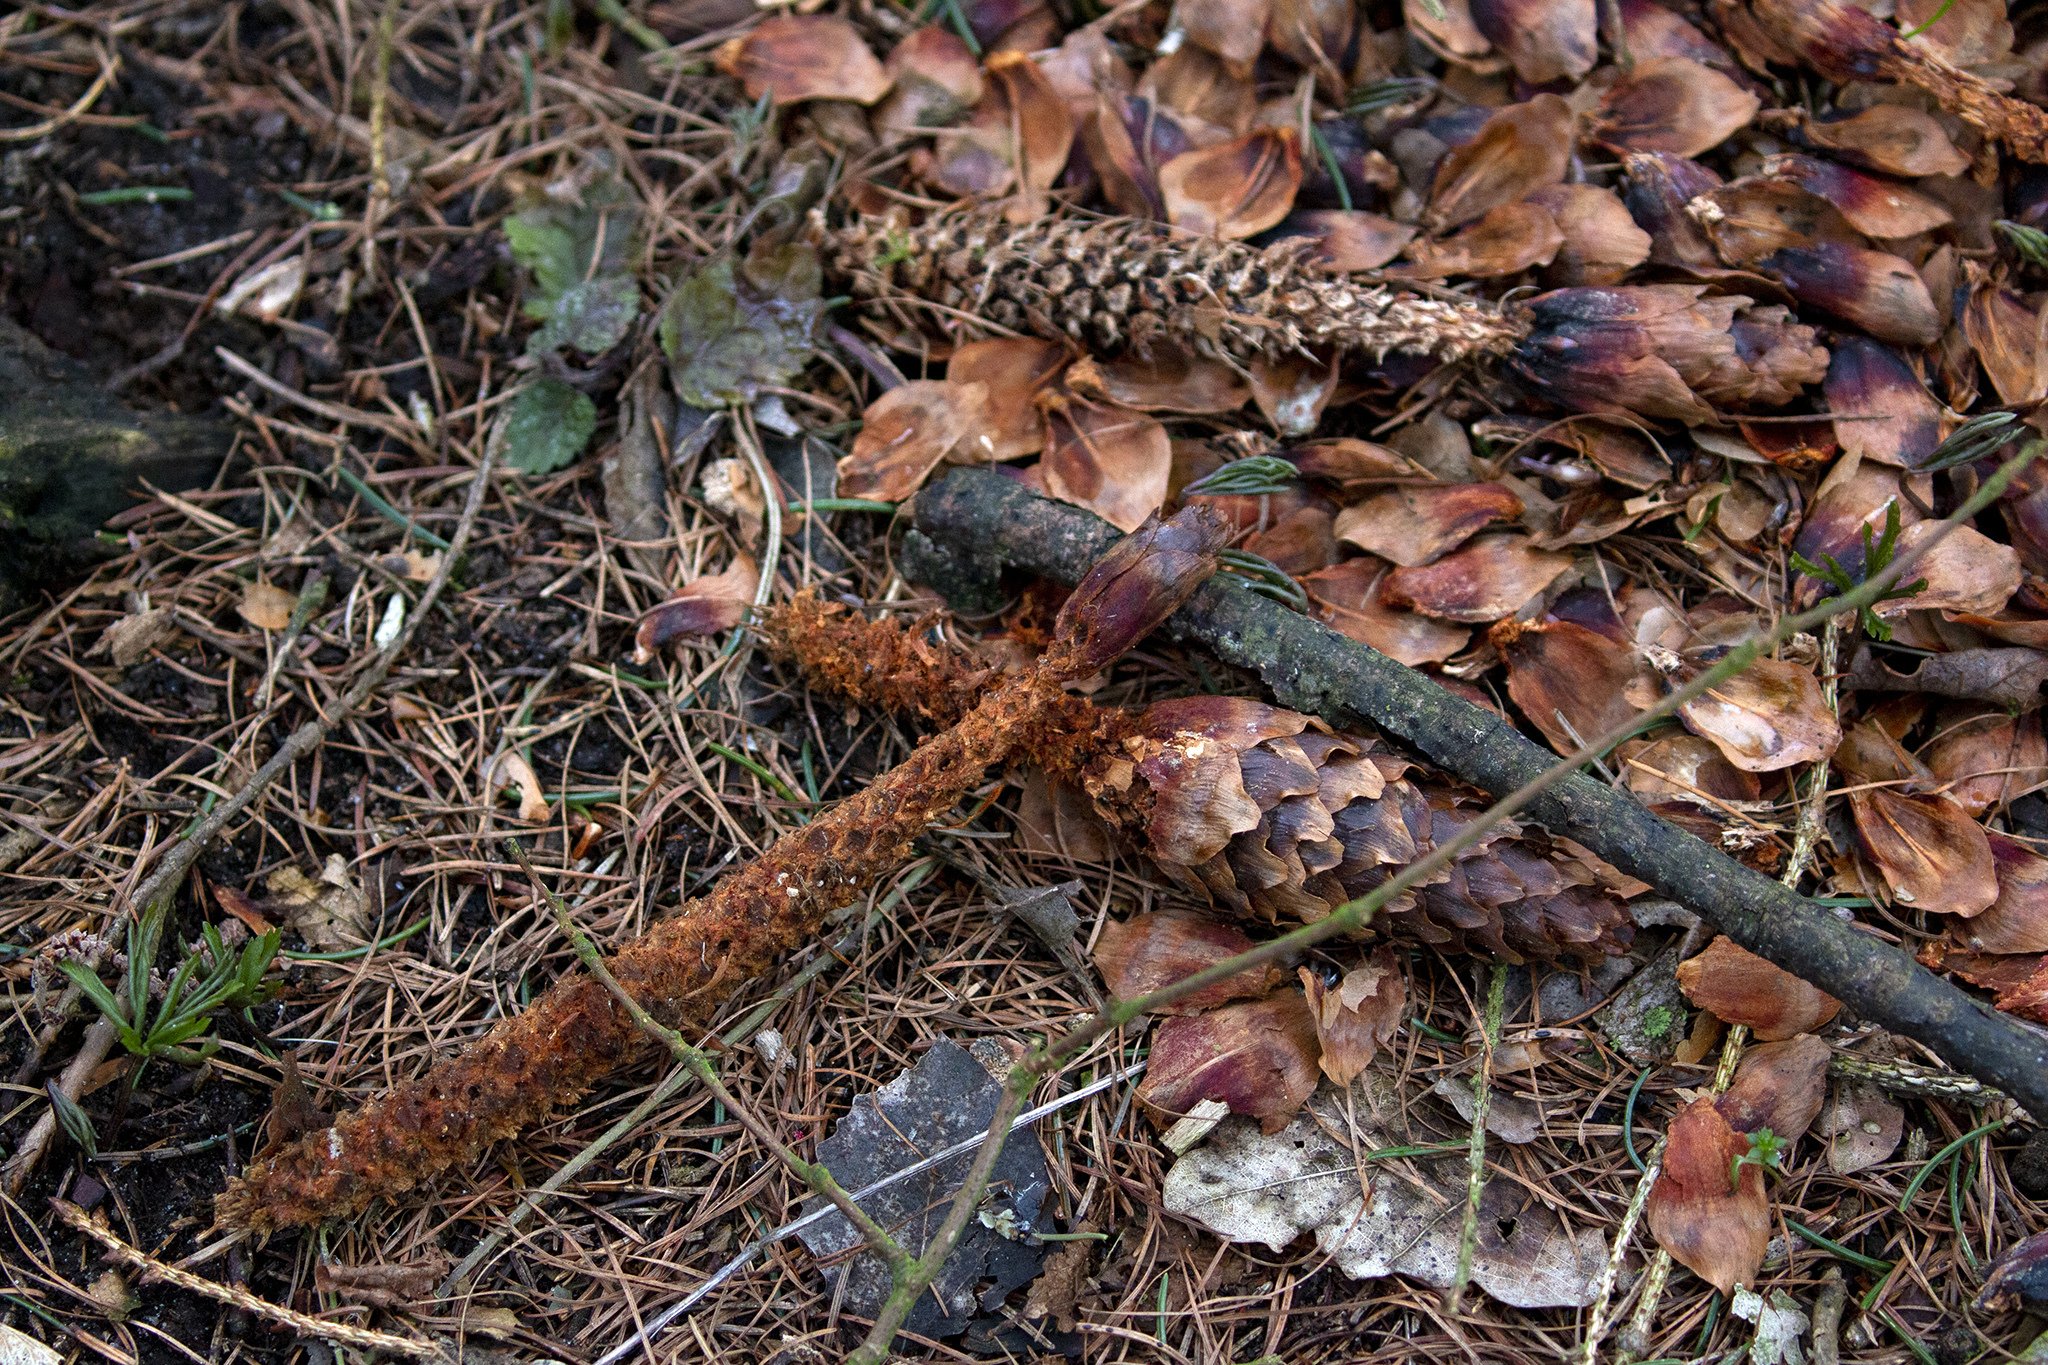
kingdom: Animalia
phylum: Chordata
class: Mammalia
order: Rodentia
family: Sciuridae
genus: Sciurus
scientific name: Sciurus vulgaris
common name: Eurasian red squirrel
